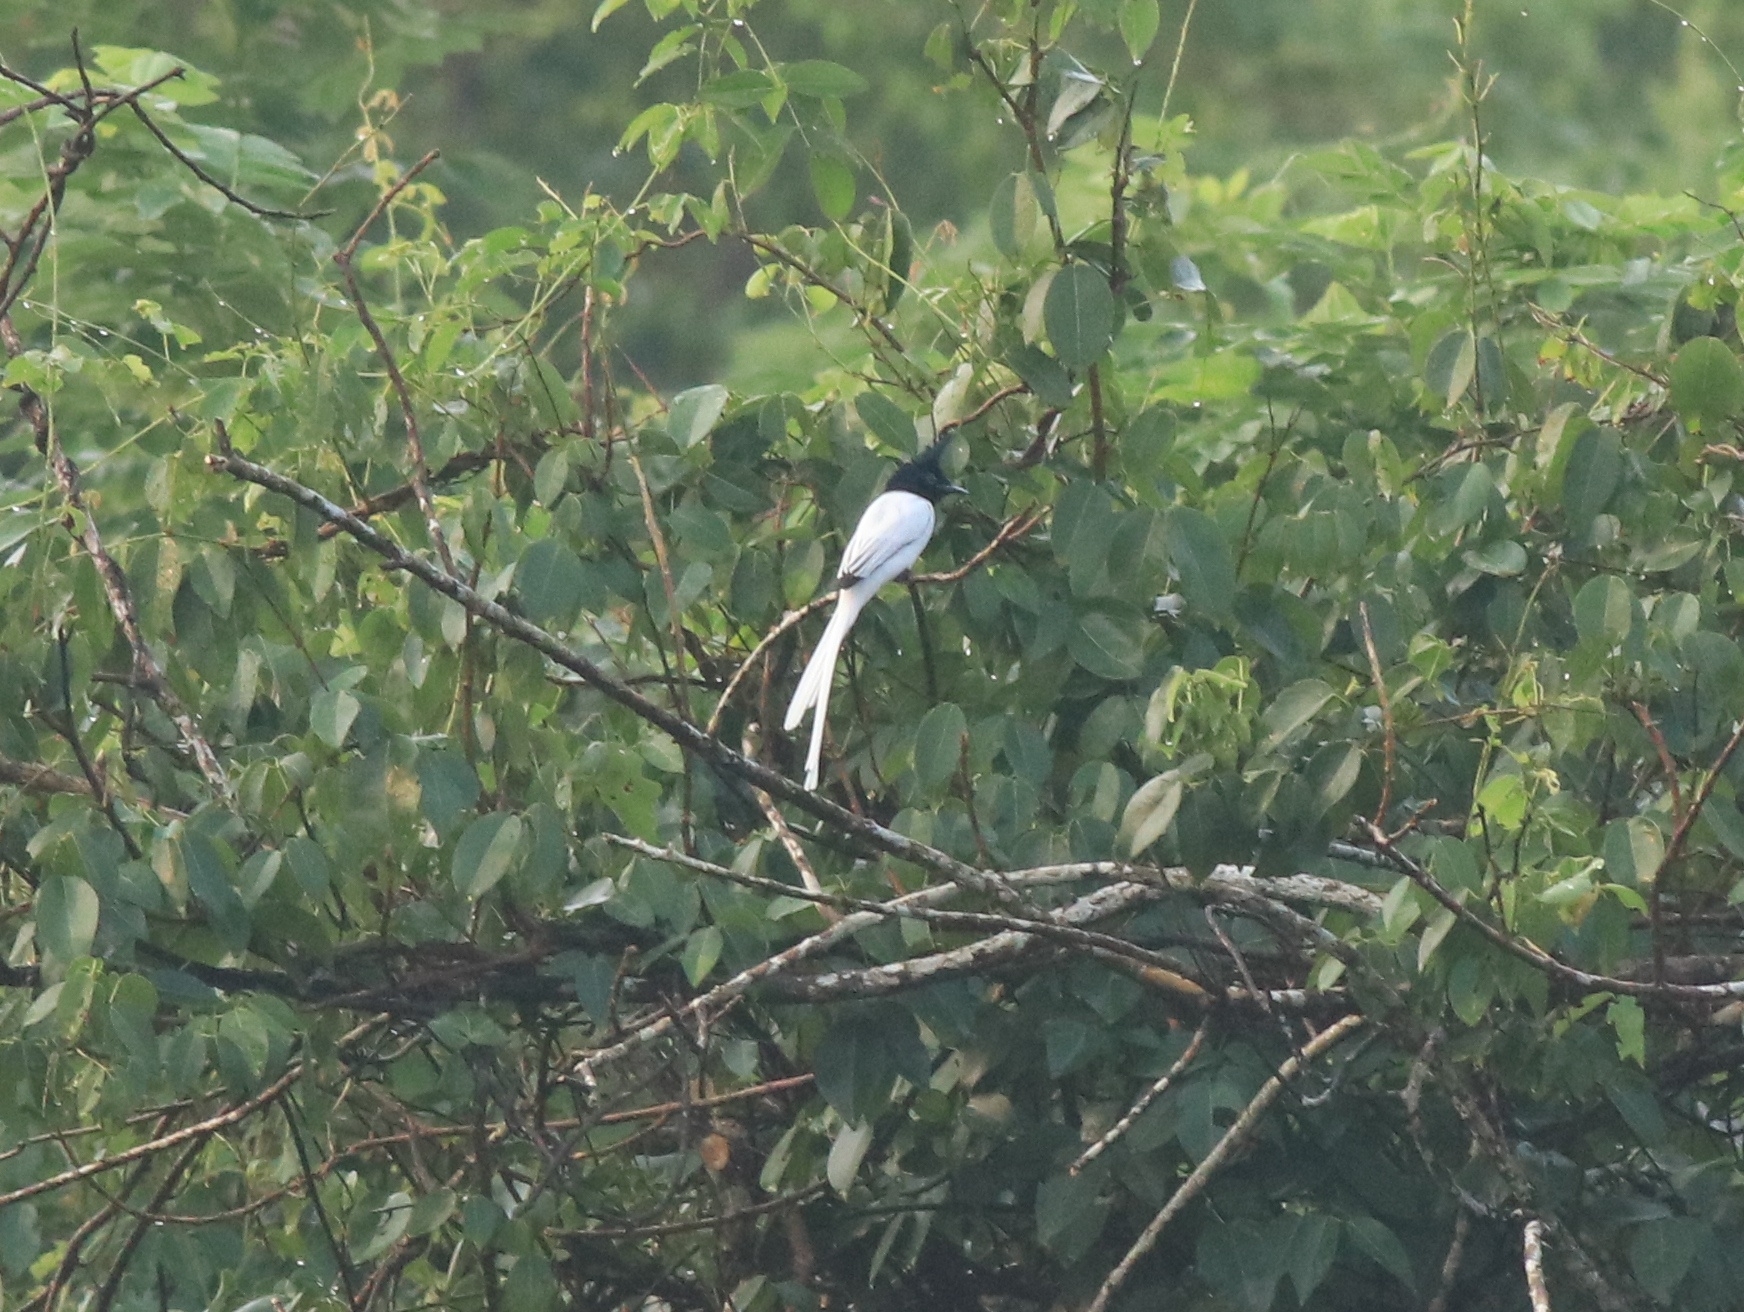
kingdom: Animalia
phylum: Chordata
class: Aves
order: Passeriformes
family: Monarchidae
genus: Terpsiphone
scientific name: Terpsiphone paradisi
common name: Indian paradise flycatcher
